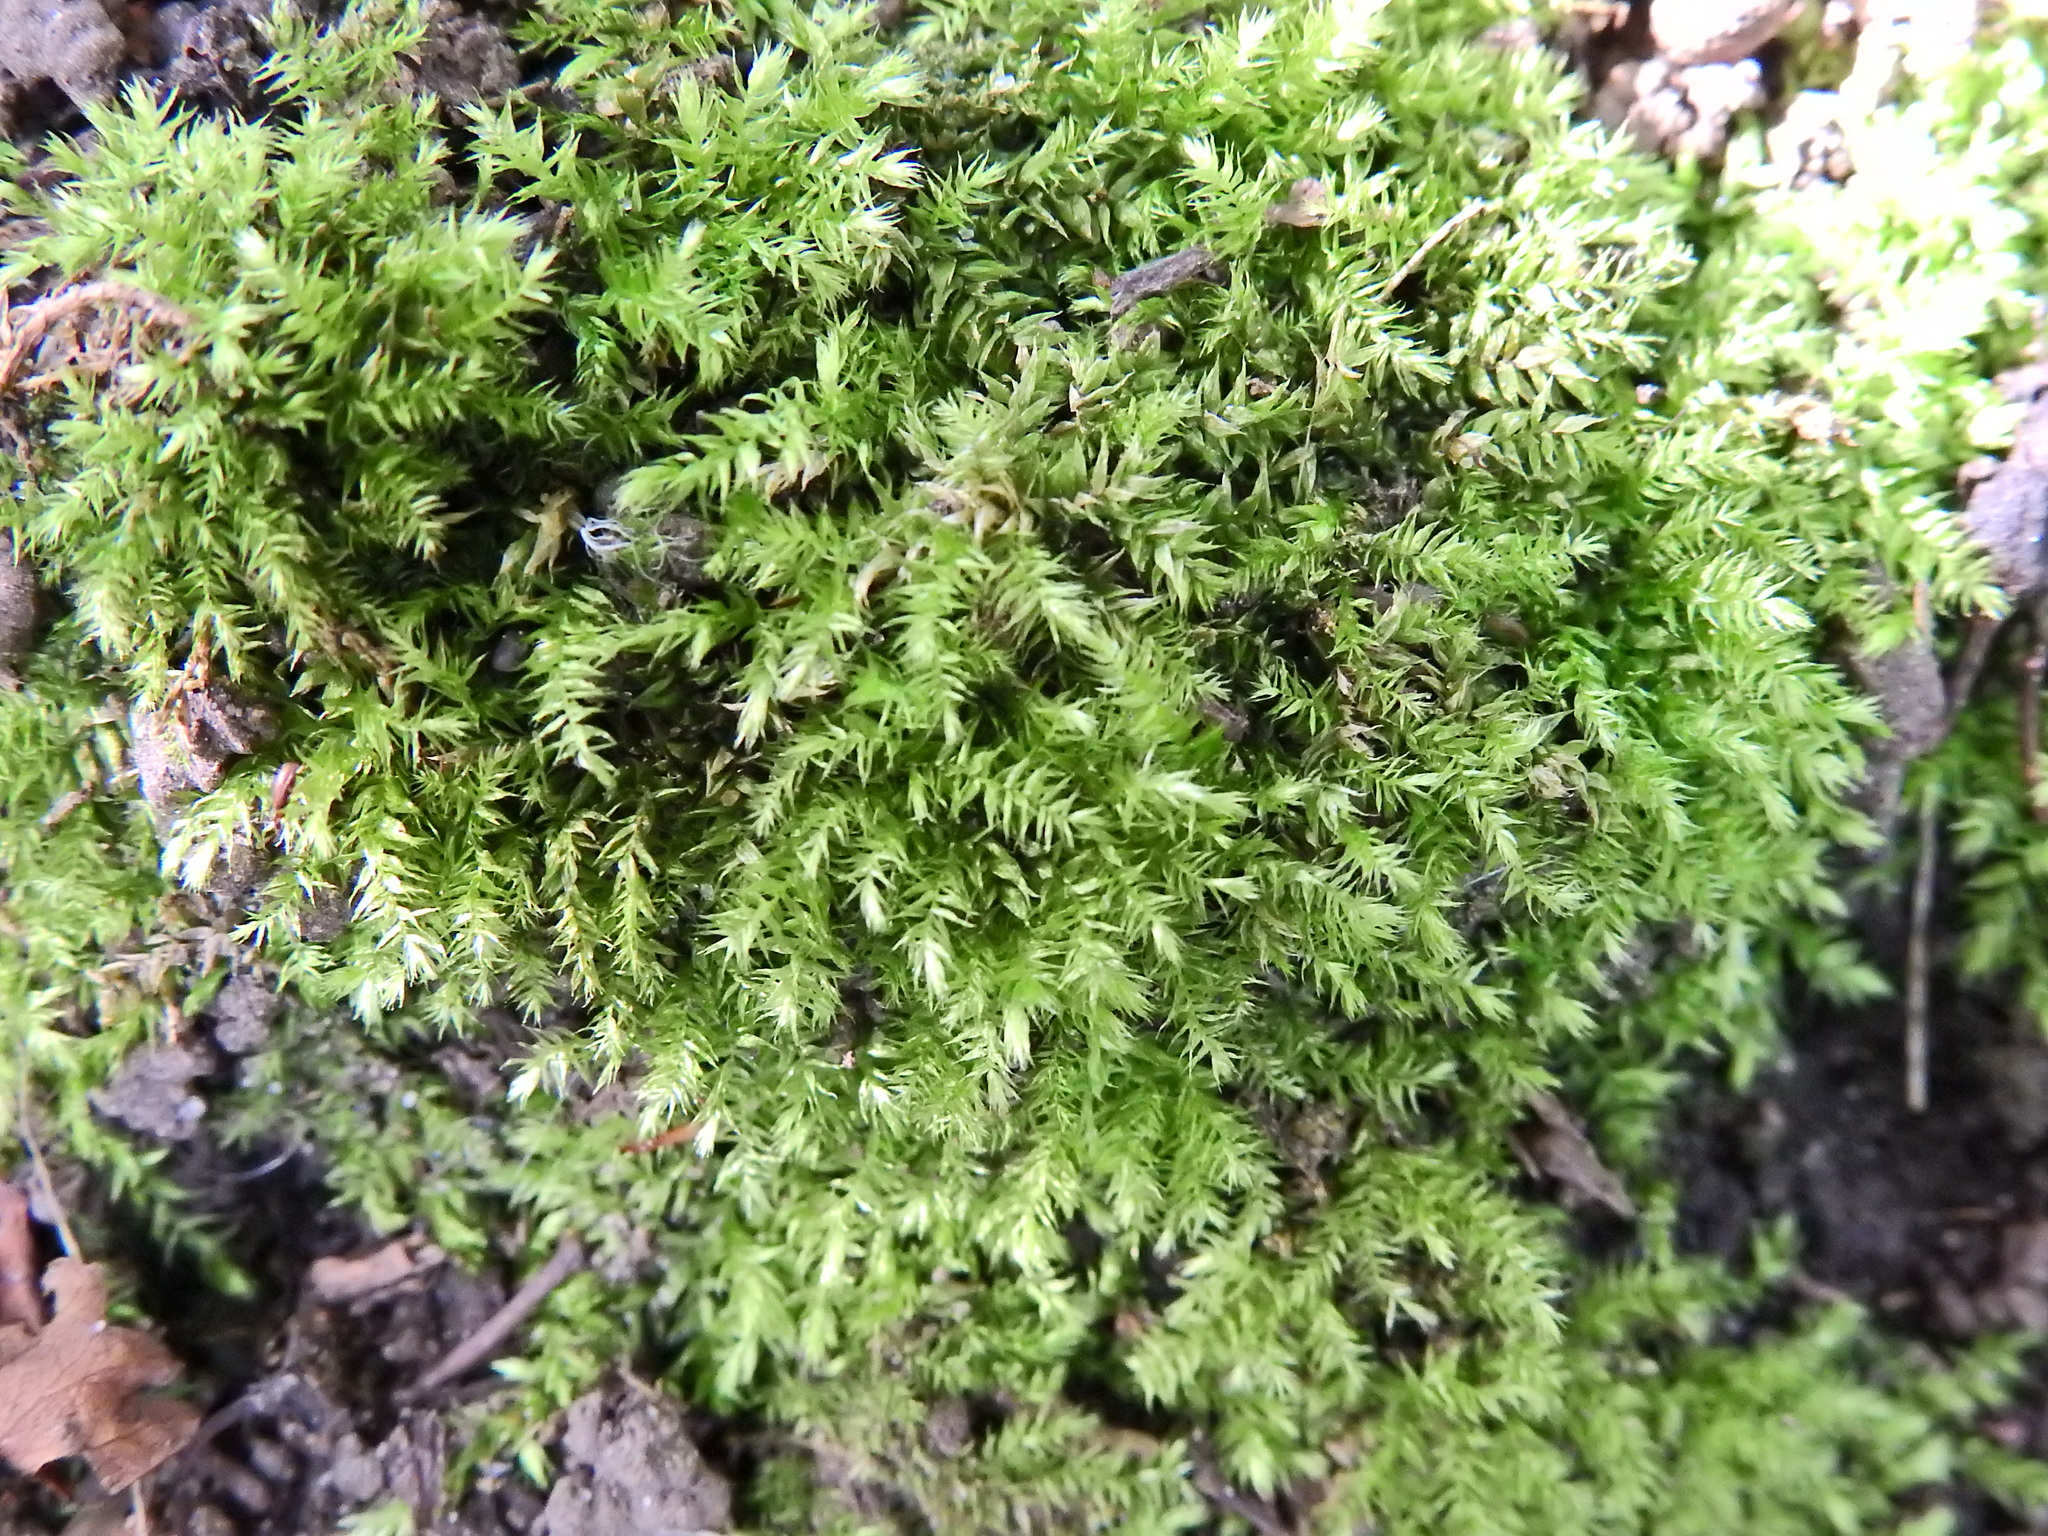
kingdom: Plantae
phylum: Bryophyta
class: Bryopsida
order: Hypnales
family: Brachytheciaceae
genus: Oxyrrhynchium
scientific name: Oxyrrhynchium hians
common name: Spreading beaked moss
